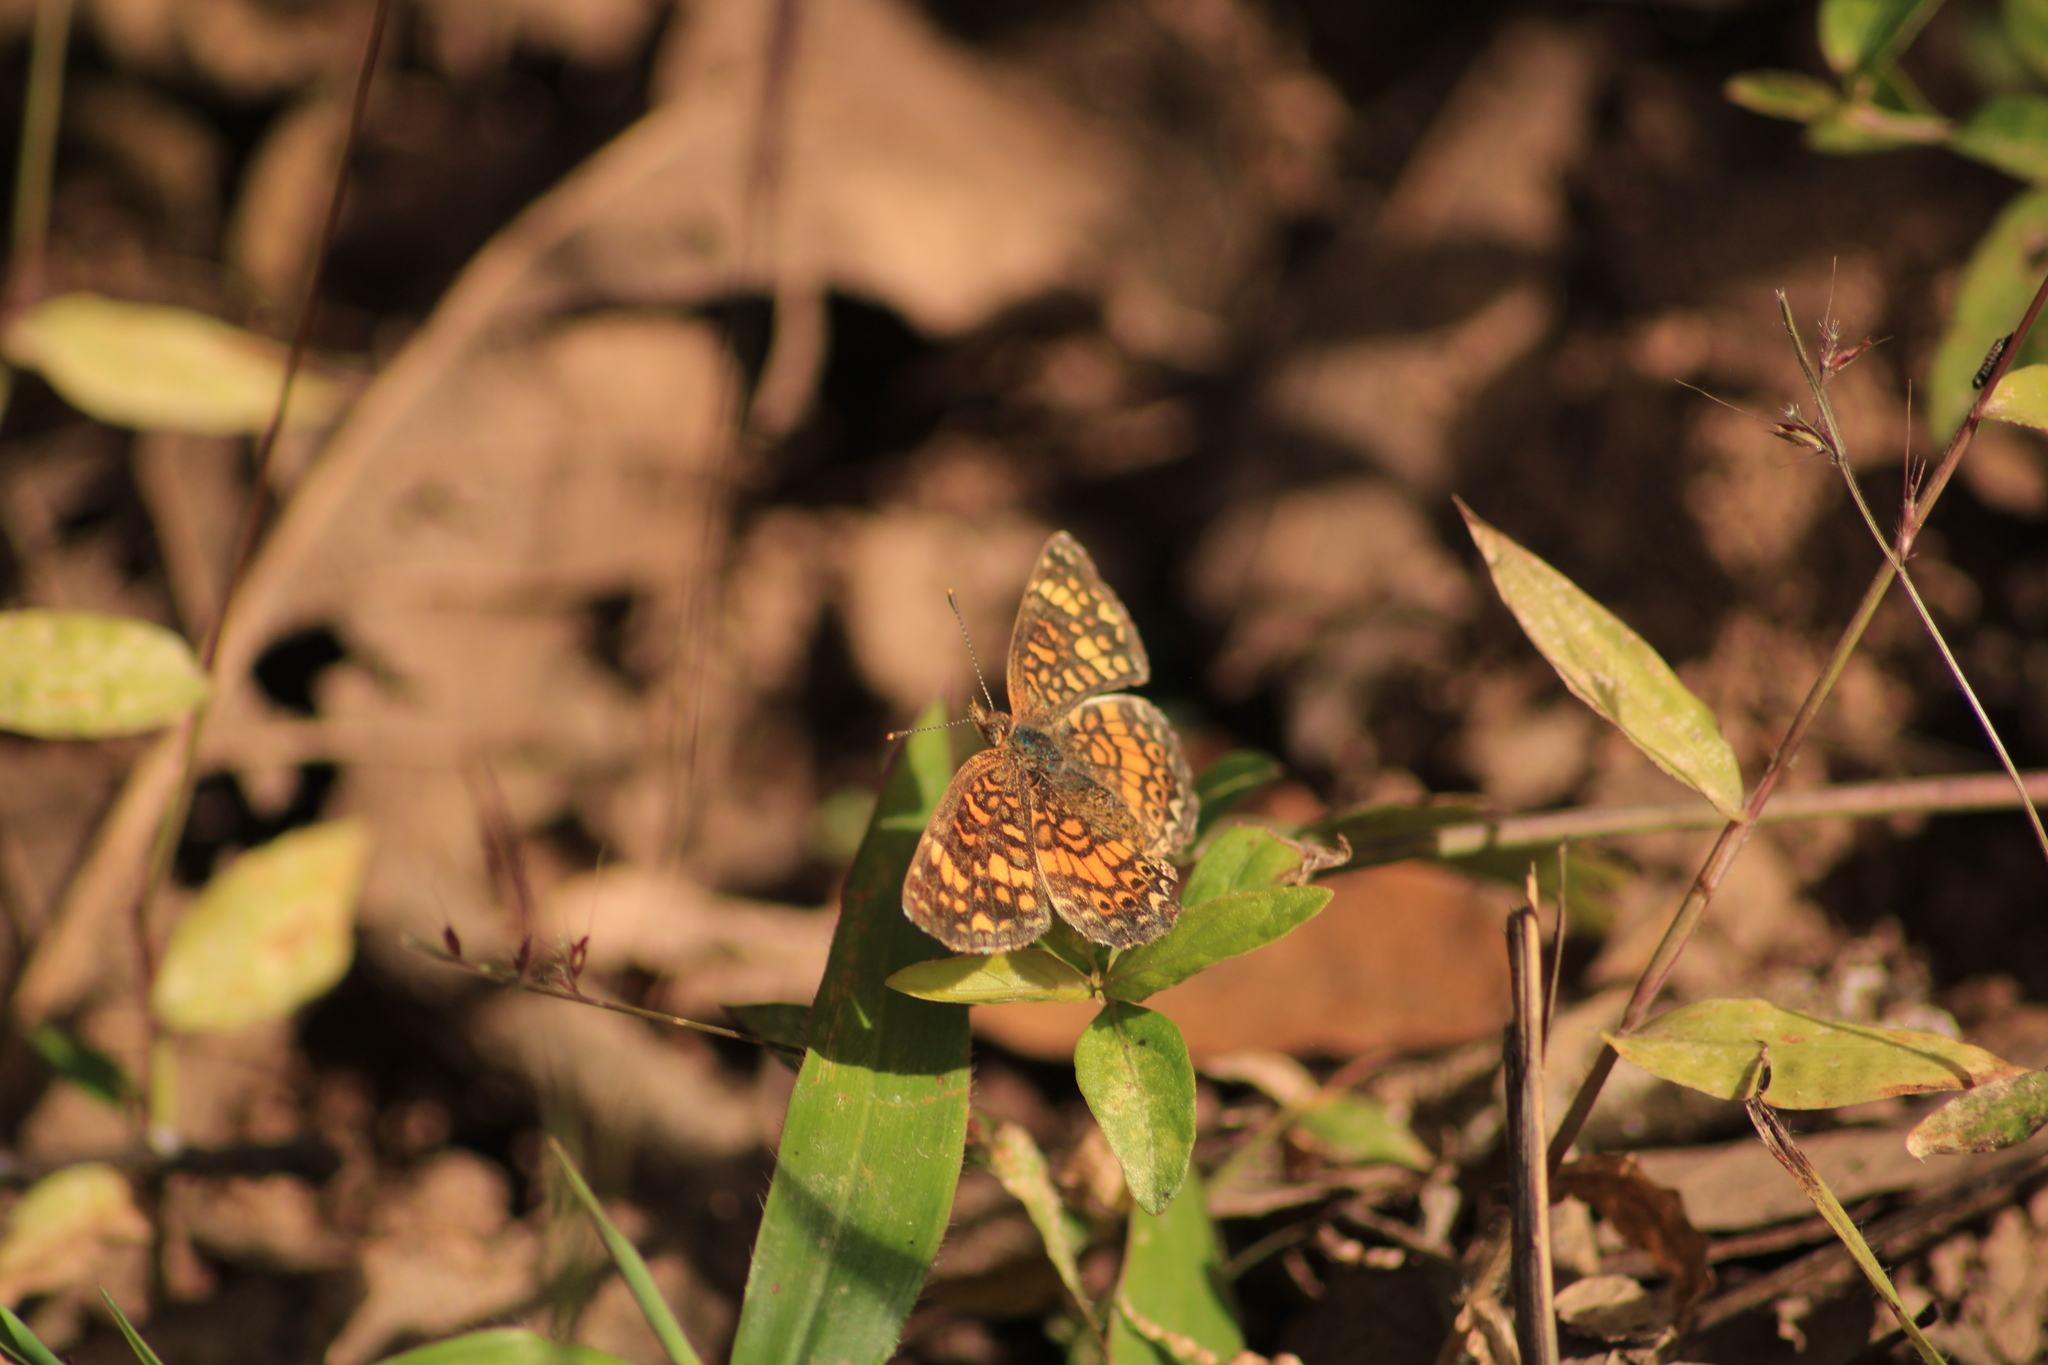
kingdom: Animalia
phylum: Arthropoda
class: Insecta
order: Lepidoptera
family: Nymphalidae
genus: Phyciodes
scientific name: Phyciodes vesta
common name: Vesta crescent
